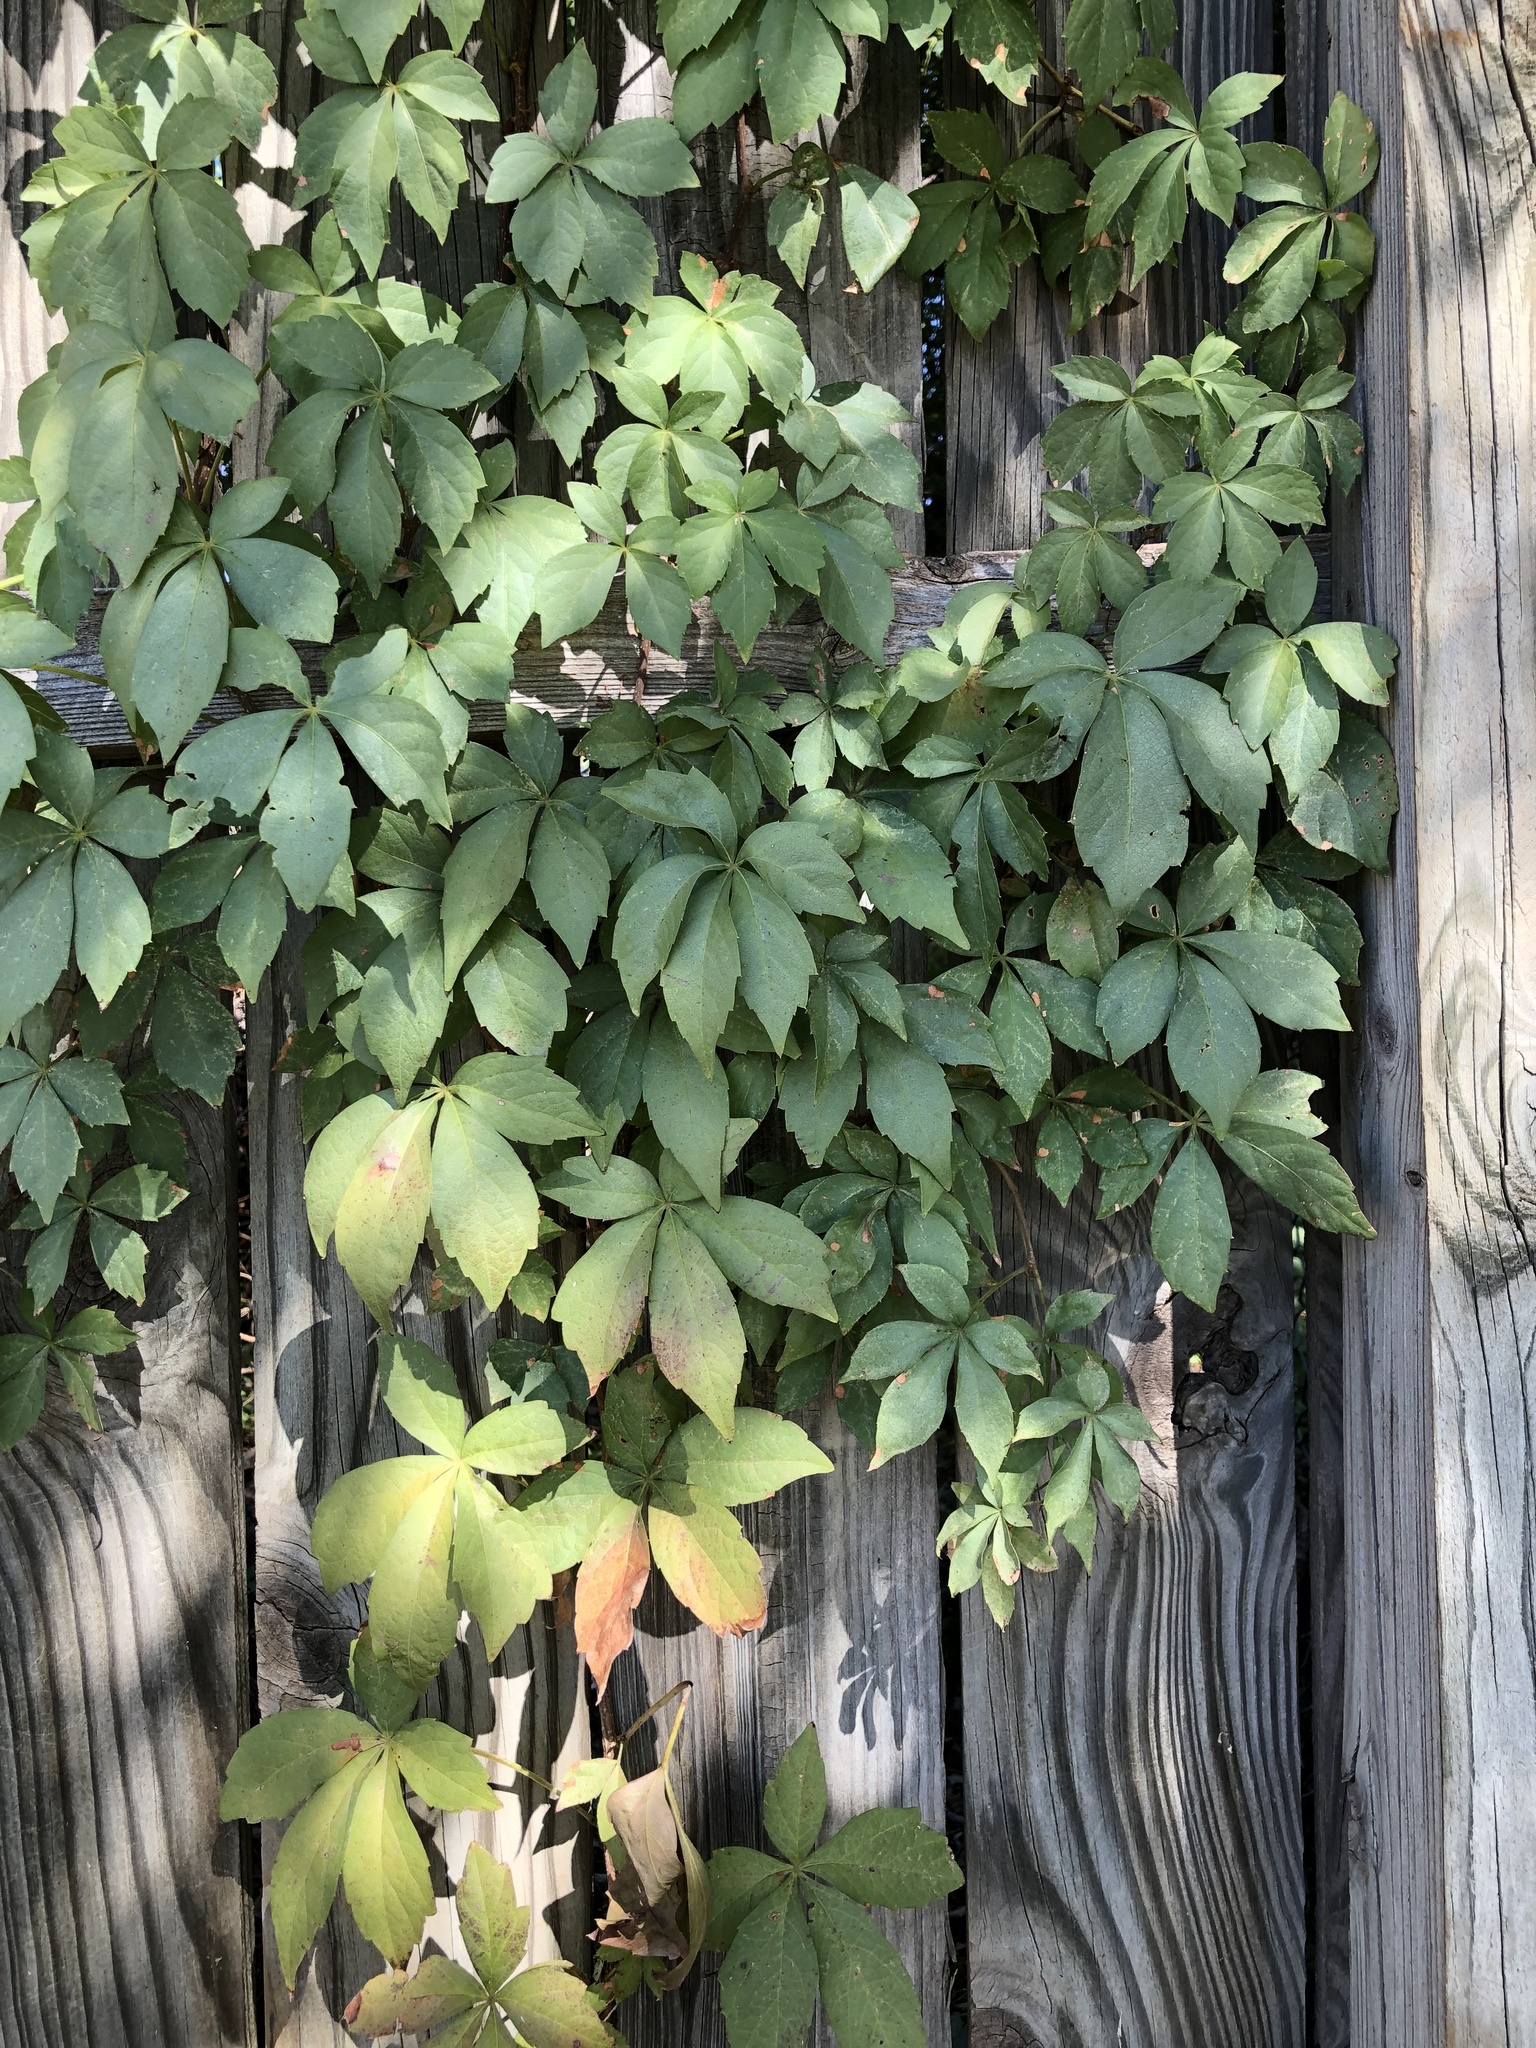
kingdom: Plantae
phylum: Tracheophyta
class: Magnoliopsida
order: Vitales
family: Vitaceae
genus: Parthenocissus
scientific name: Parthenocissus quinquefolia
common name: Virginia-creeper
